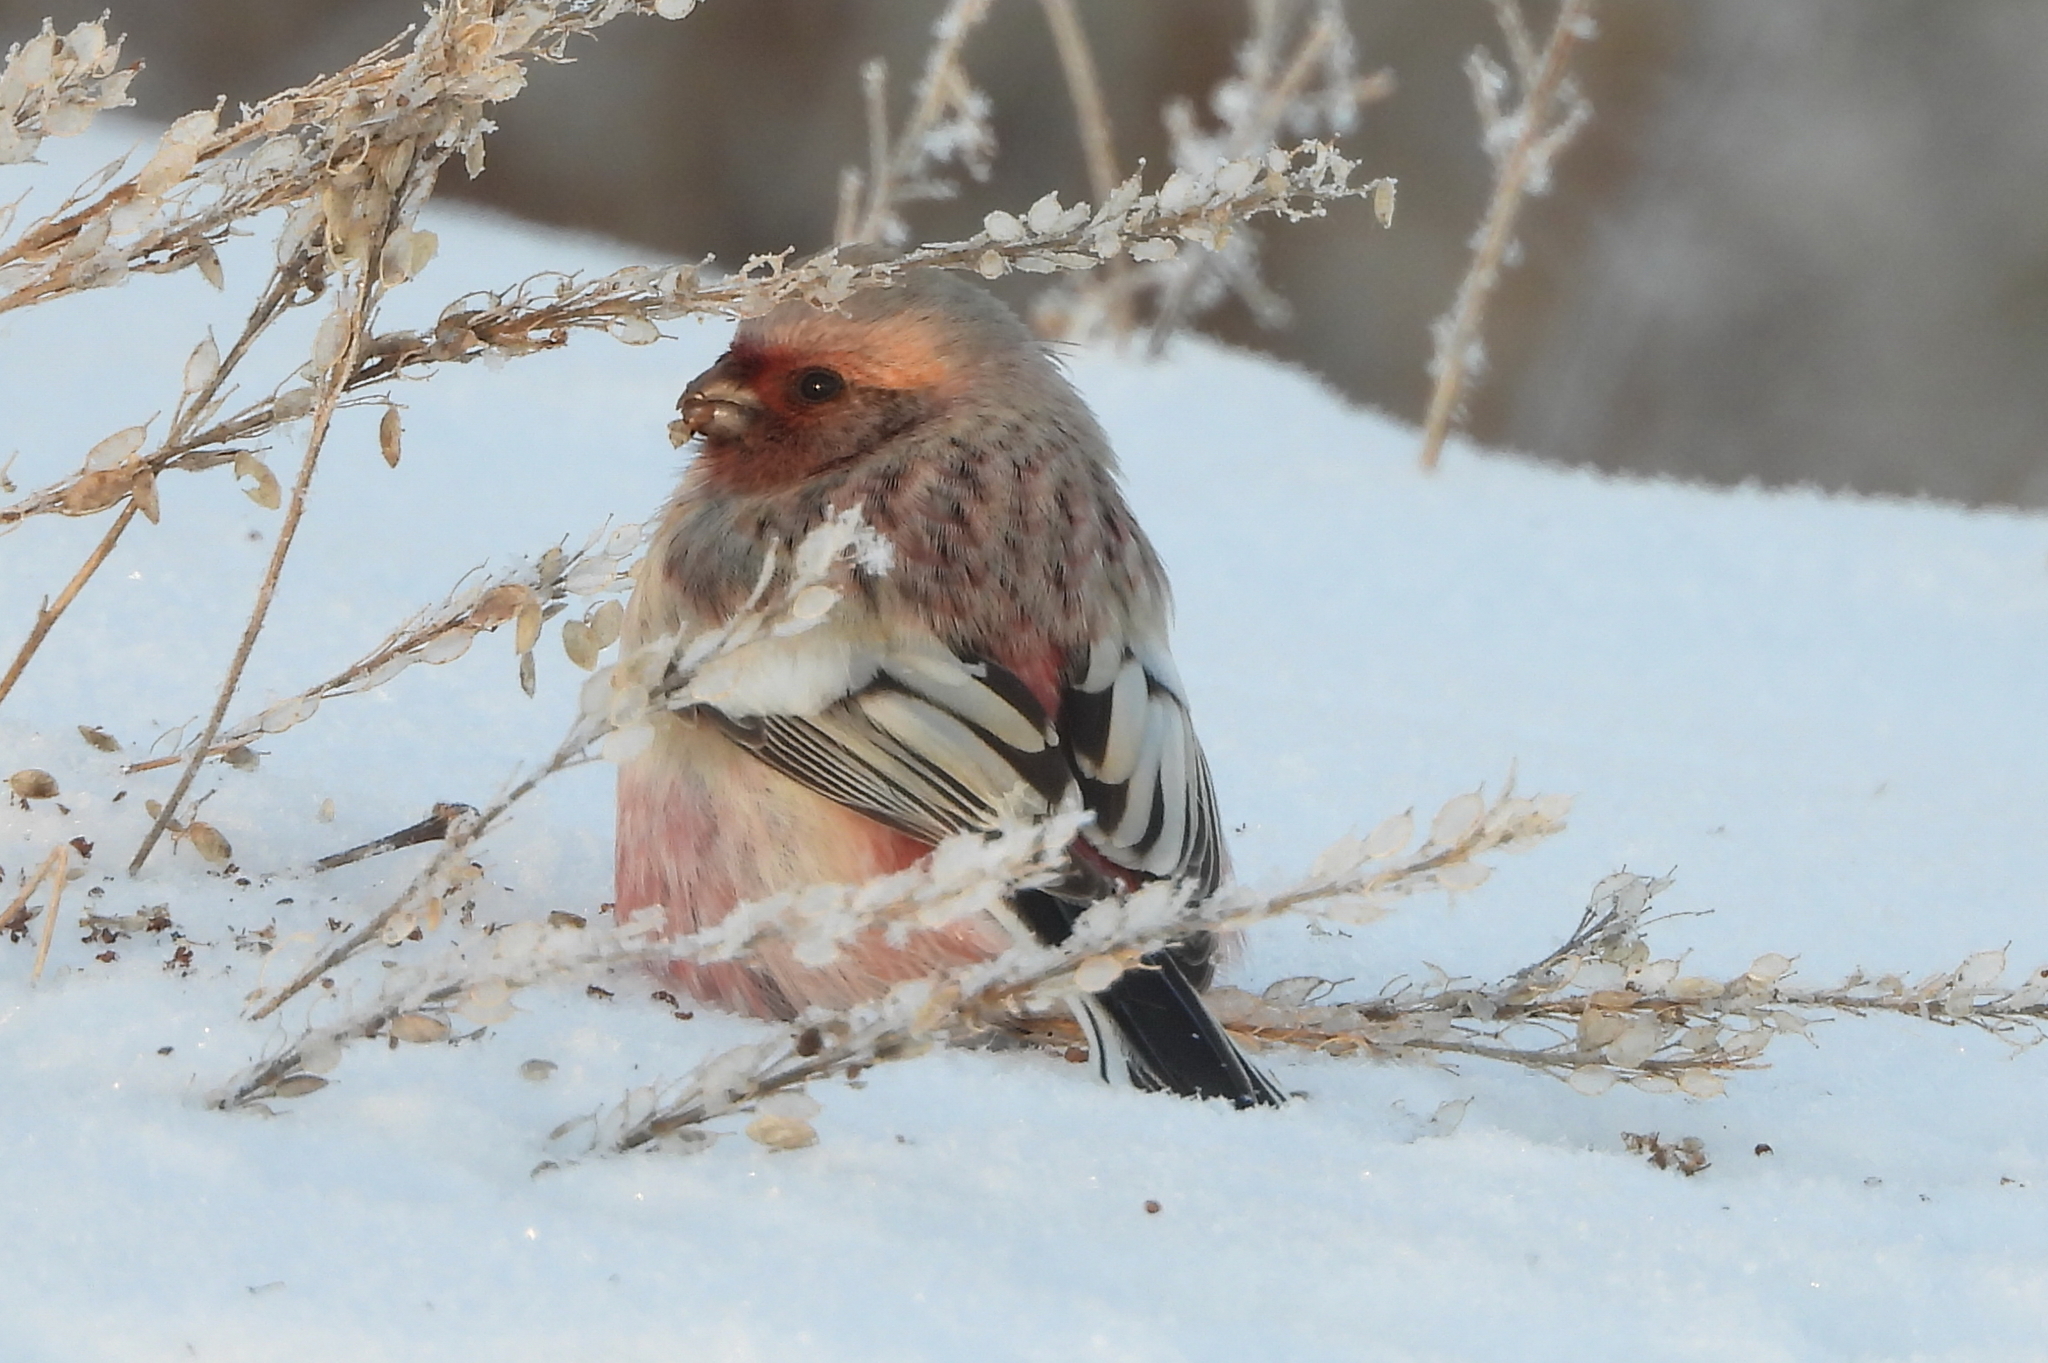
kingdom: Animalia
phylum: Chordata
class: Aves
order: Passeriformes
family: Fringillidae
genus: Carpodacus
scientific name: Carpodacus sibiricus
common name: Long-tailed rosefinch
